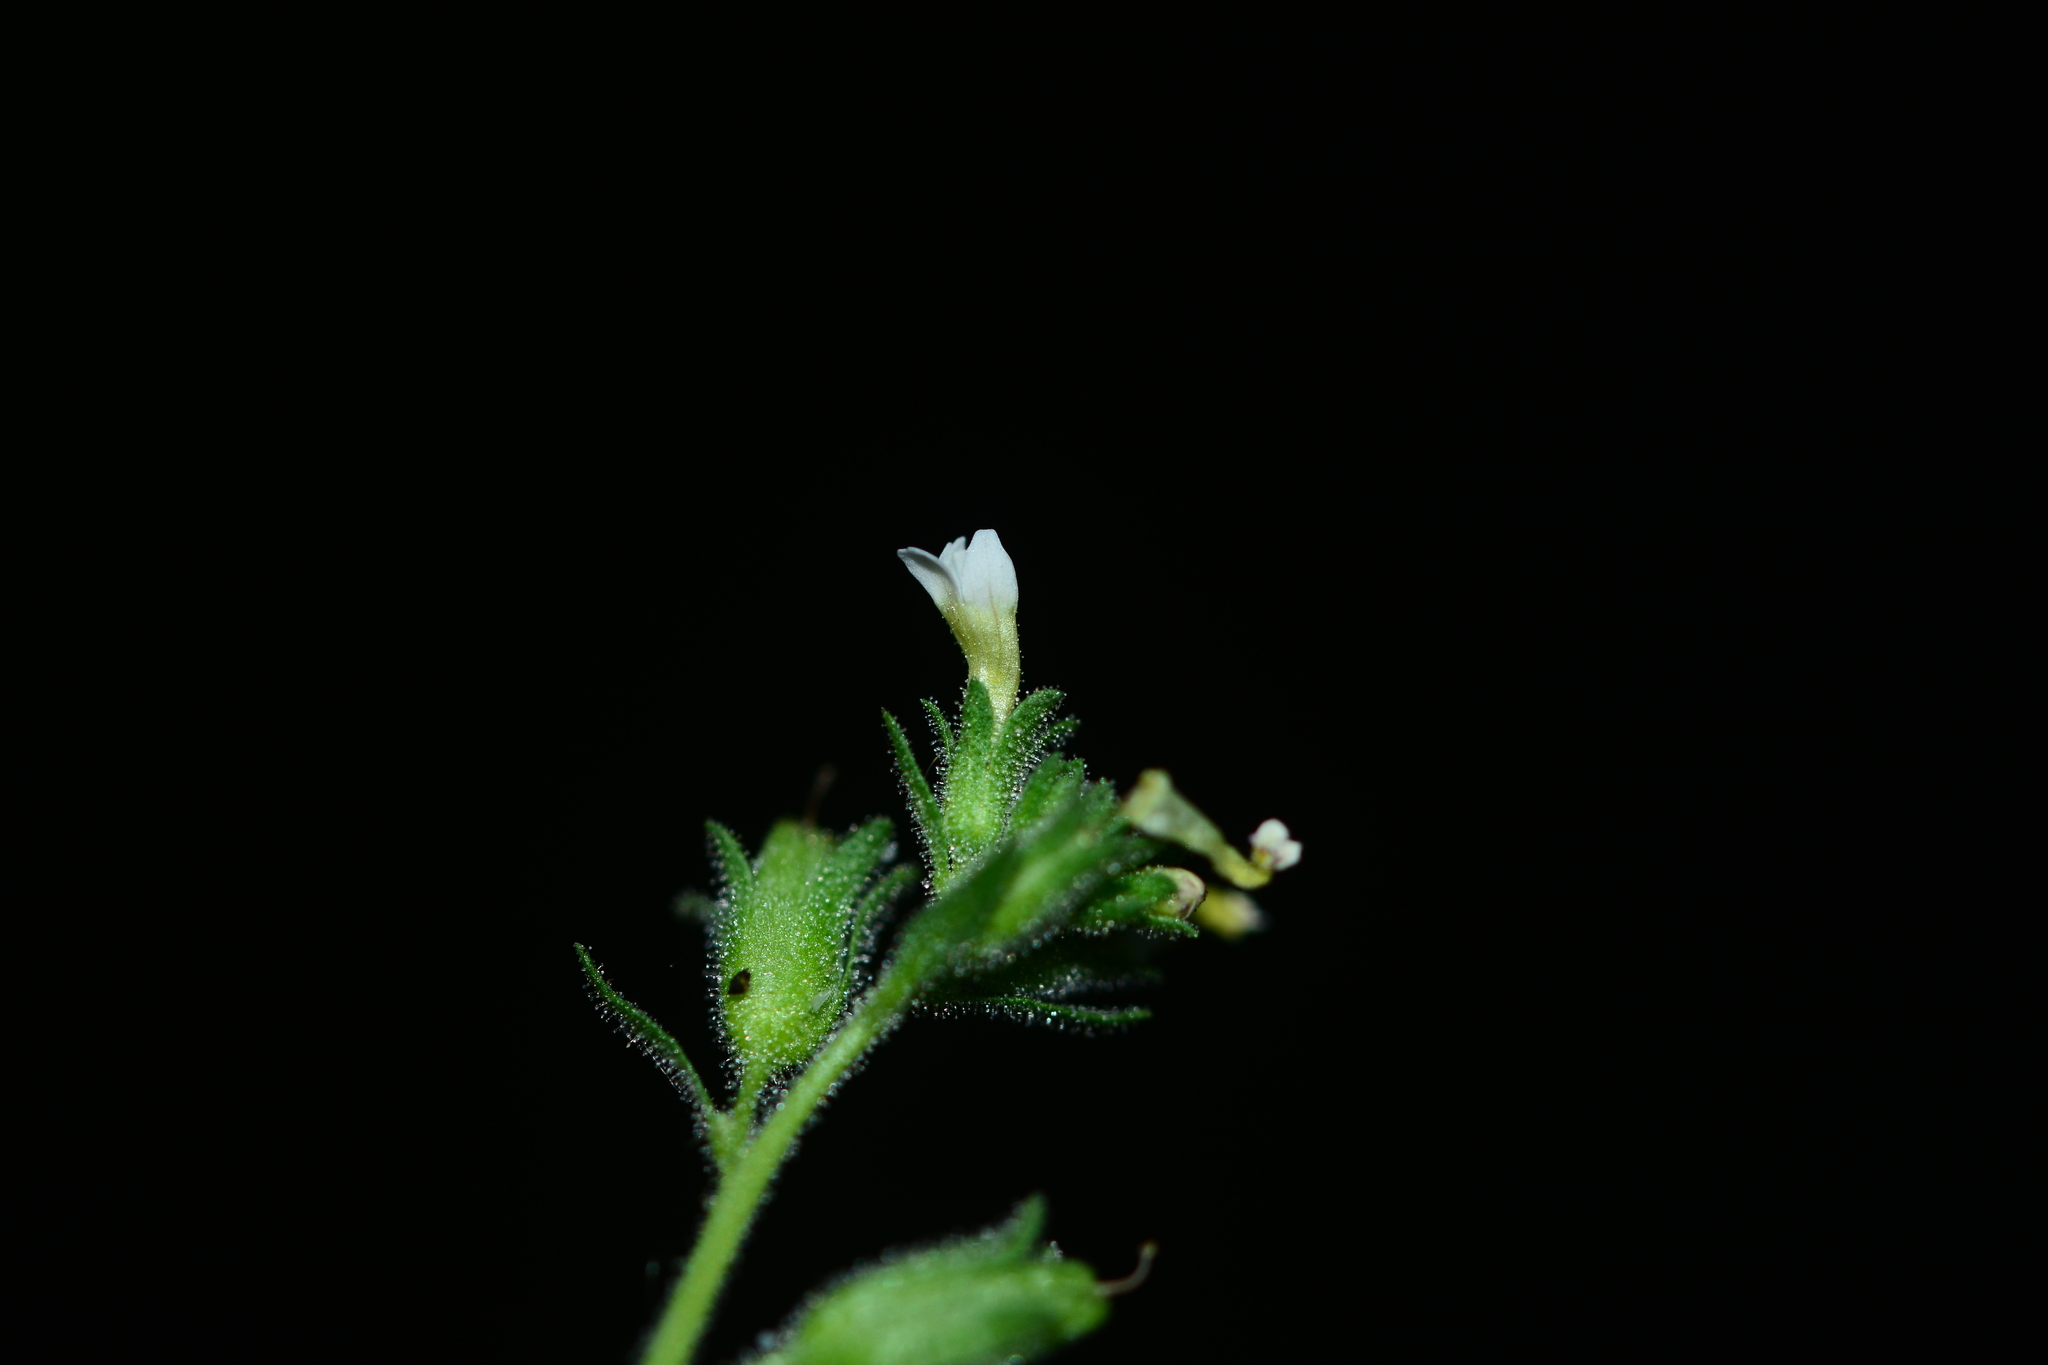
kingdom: Plantae
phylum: Tracheophyta
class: Magnoliopsida
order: Lamiales
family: Scrophulariaceae
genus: Jamesbrittenia
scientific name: Jamesbrittenia dissecta
